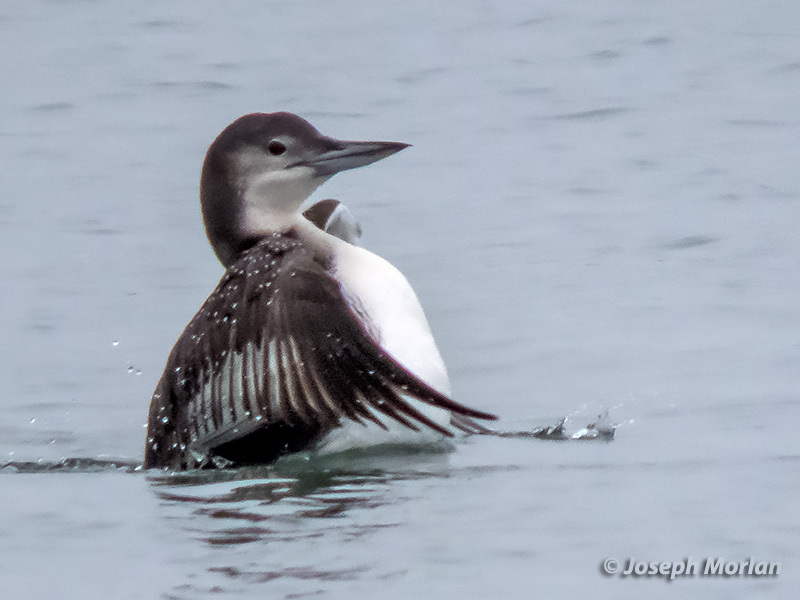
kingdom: Animalia
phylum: Chordata
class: Aves
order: Gaviiformes
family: Gaviidae
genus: Gavia
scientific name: Gavia immer
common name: Common loon
